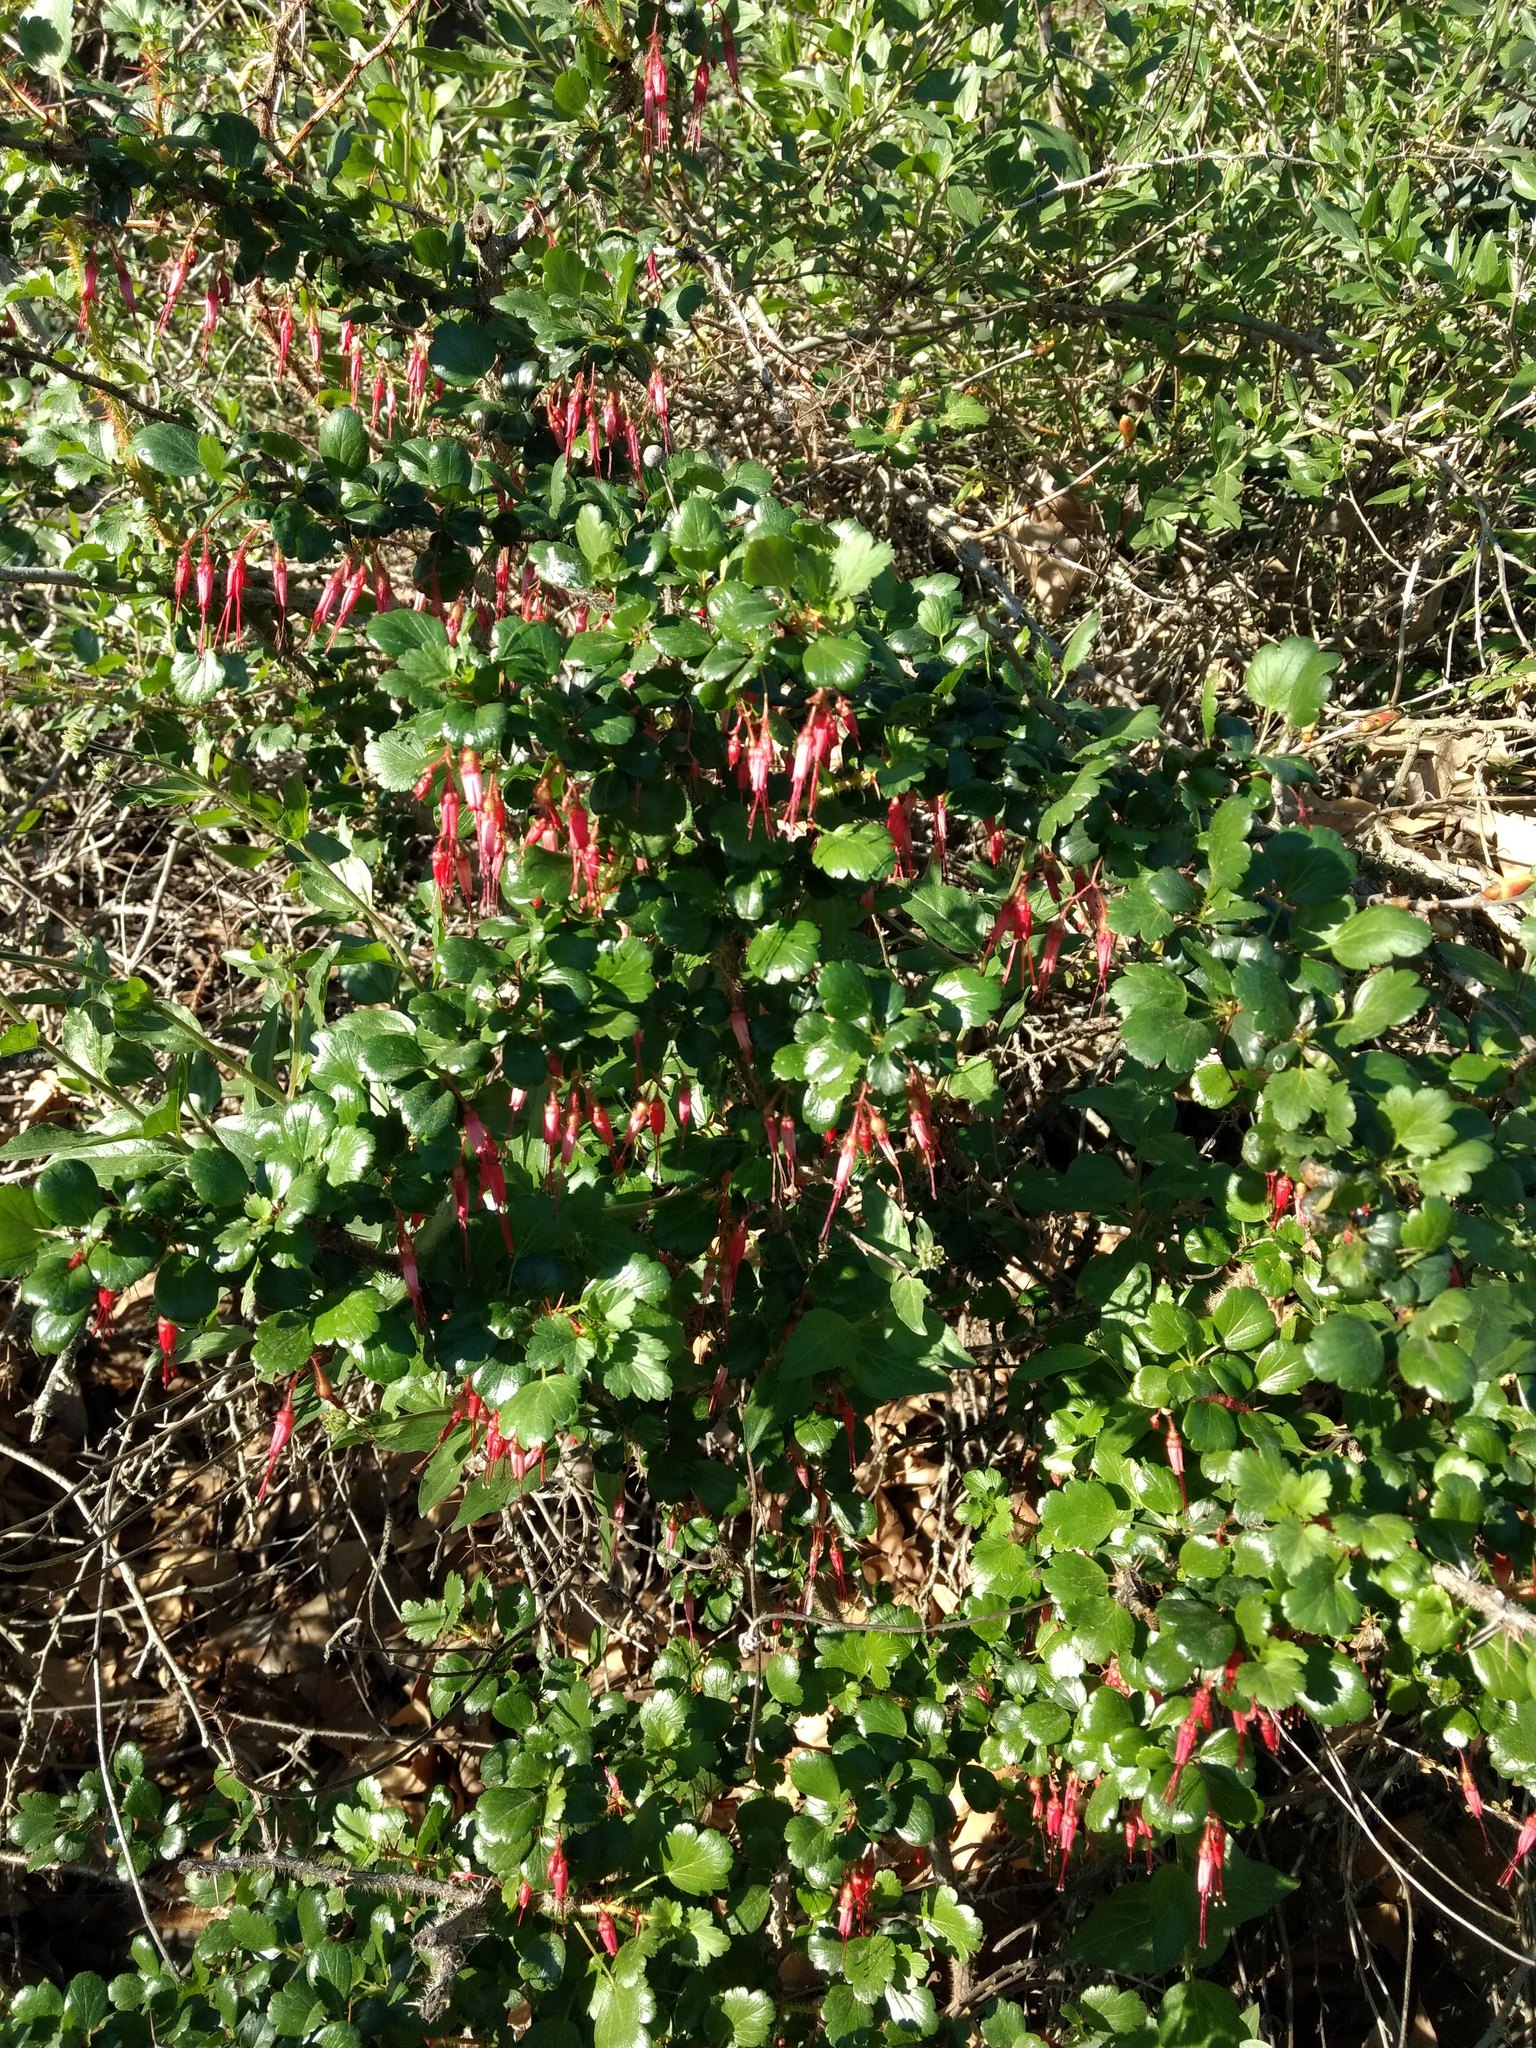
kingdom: Plantae
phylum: Tracheophyta
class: Magnoliopsida
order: Saxifragales
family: Grossulariaceae
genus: Ribes
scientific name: Ribes speciosum
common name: Fuchsia-flower gooseberry
